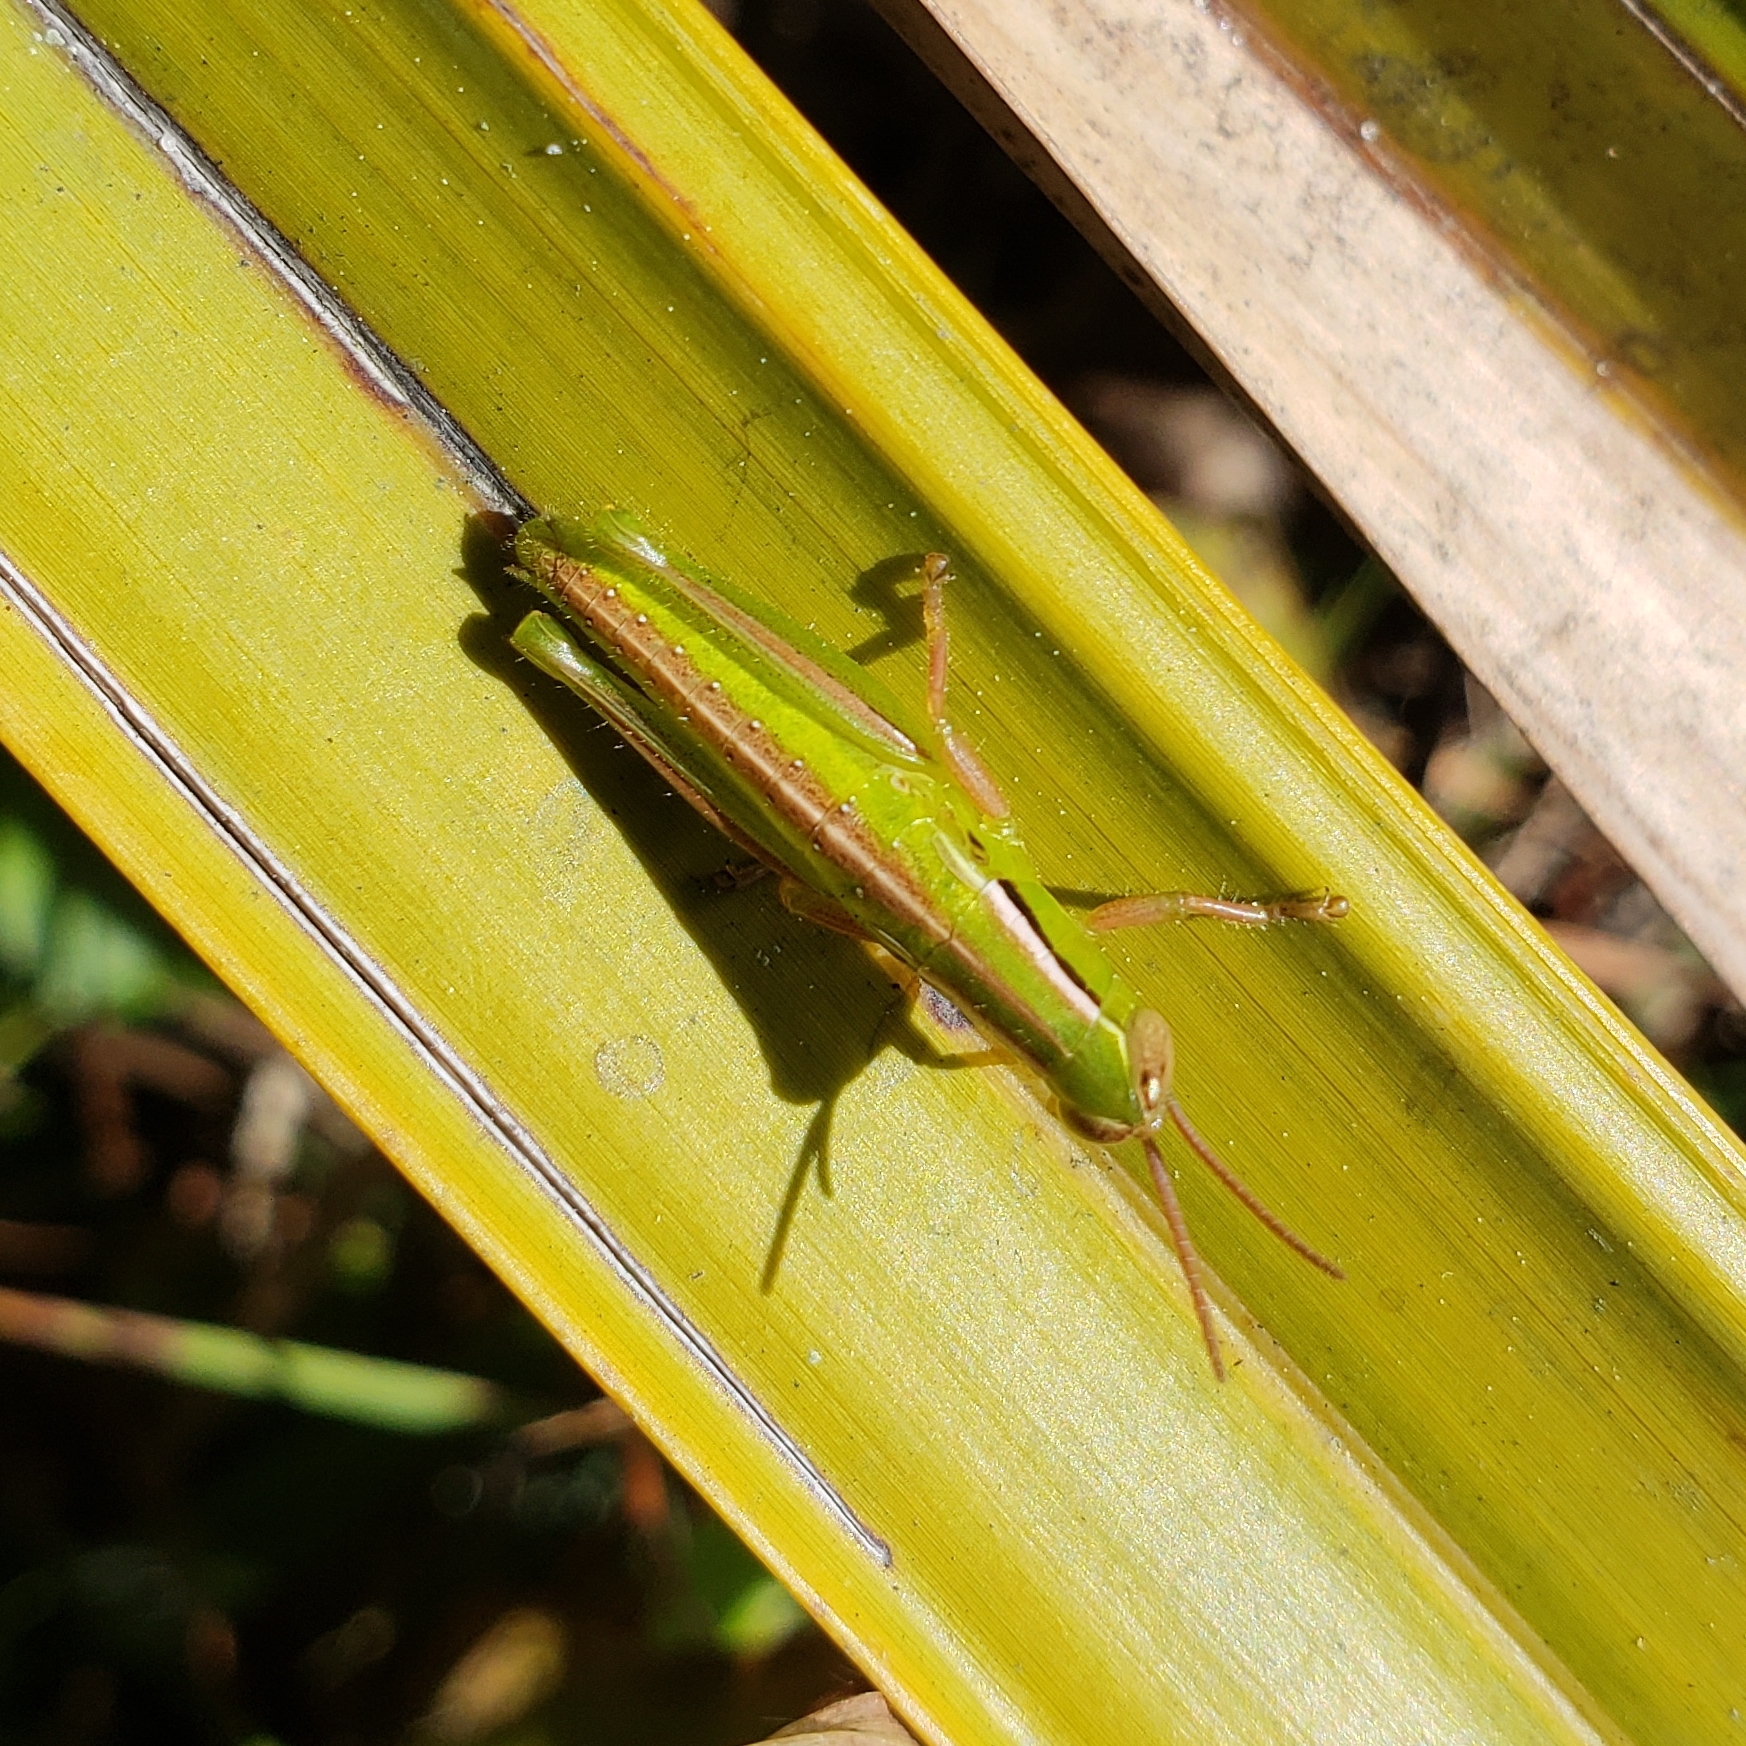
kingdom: Animalia
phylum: Arthropoda
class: Insecta
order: Orthoptera
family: Acrididae
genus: Aptenopedes
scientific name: Aptenopedes sphenarioides
